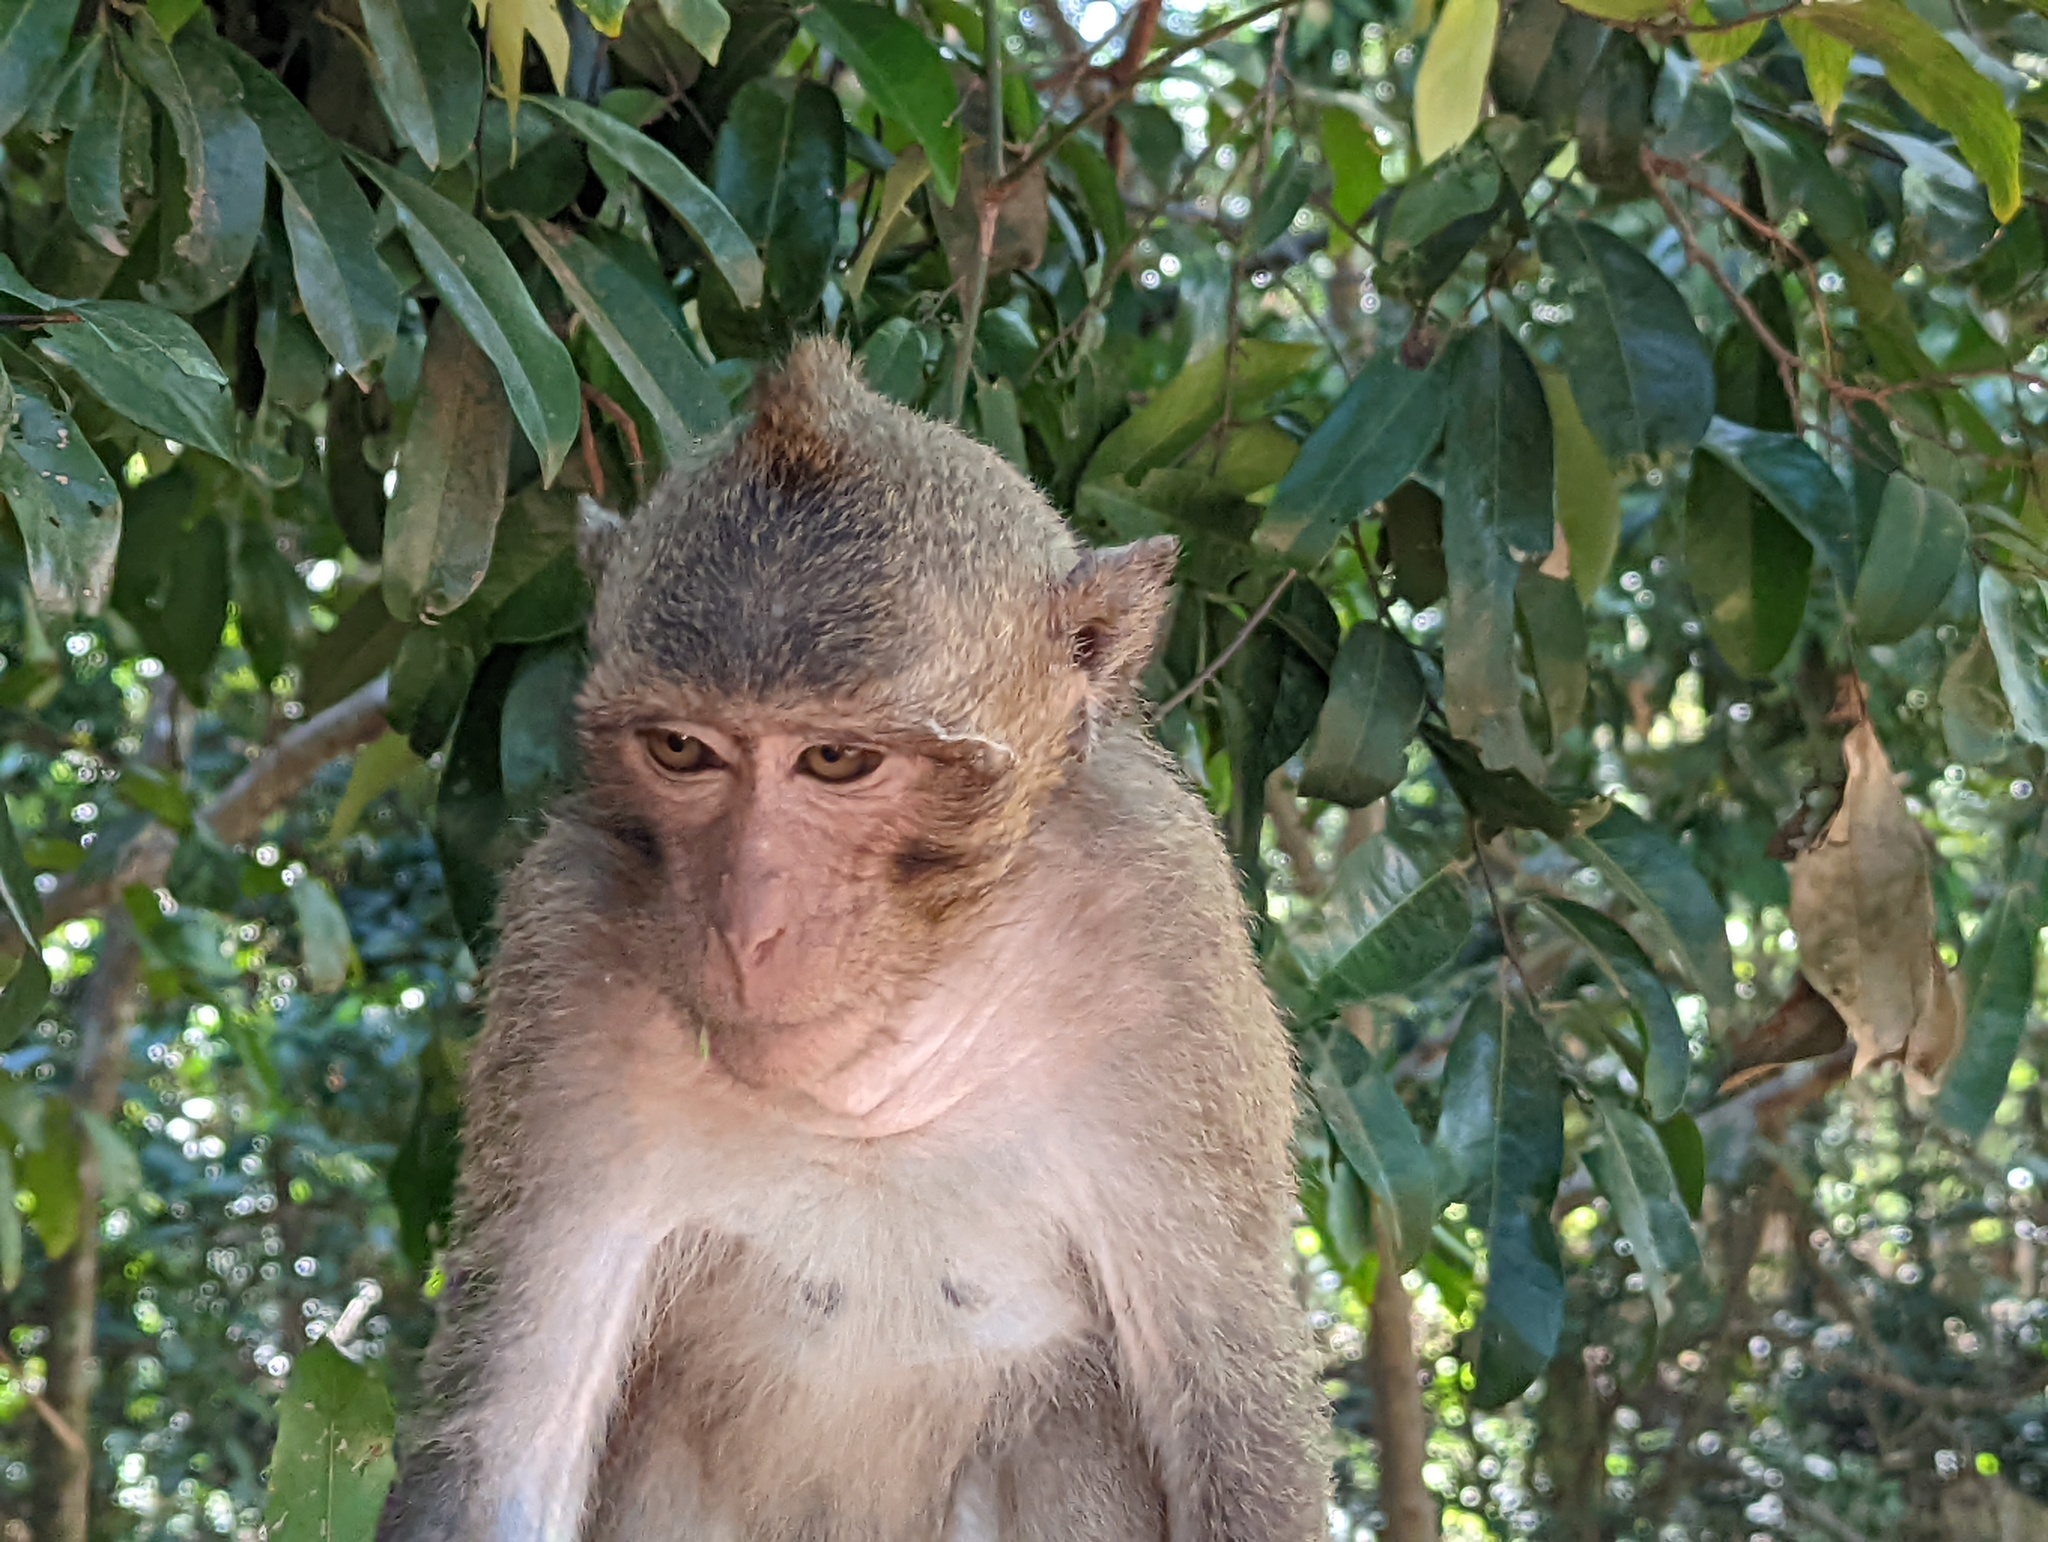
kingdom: Animalia
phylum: Chordata
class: Mammalia
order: Primates
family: Cercopithecidae
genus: Macaca
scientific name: Macaca fascicularis
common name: Crab-eating macaque
